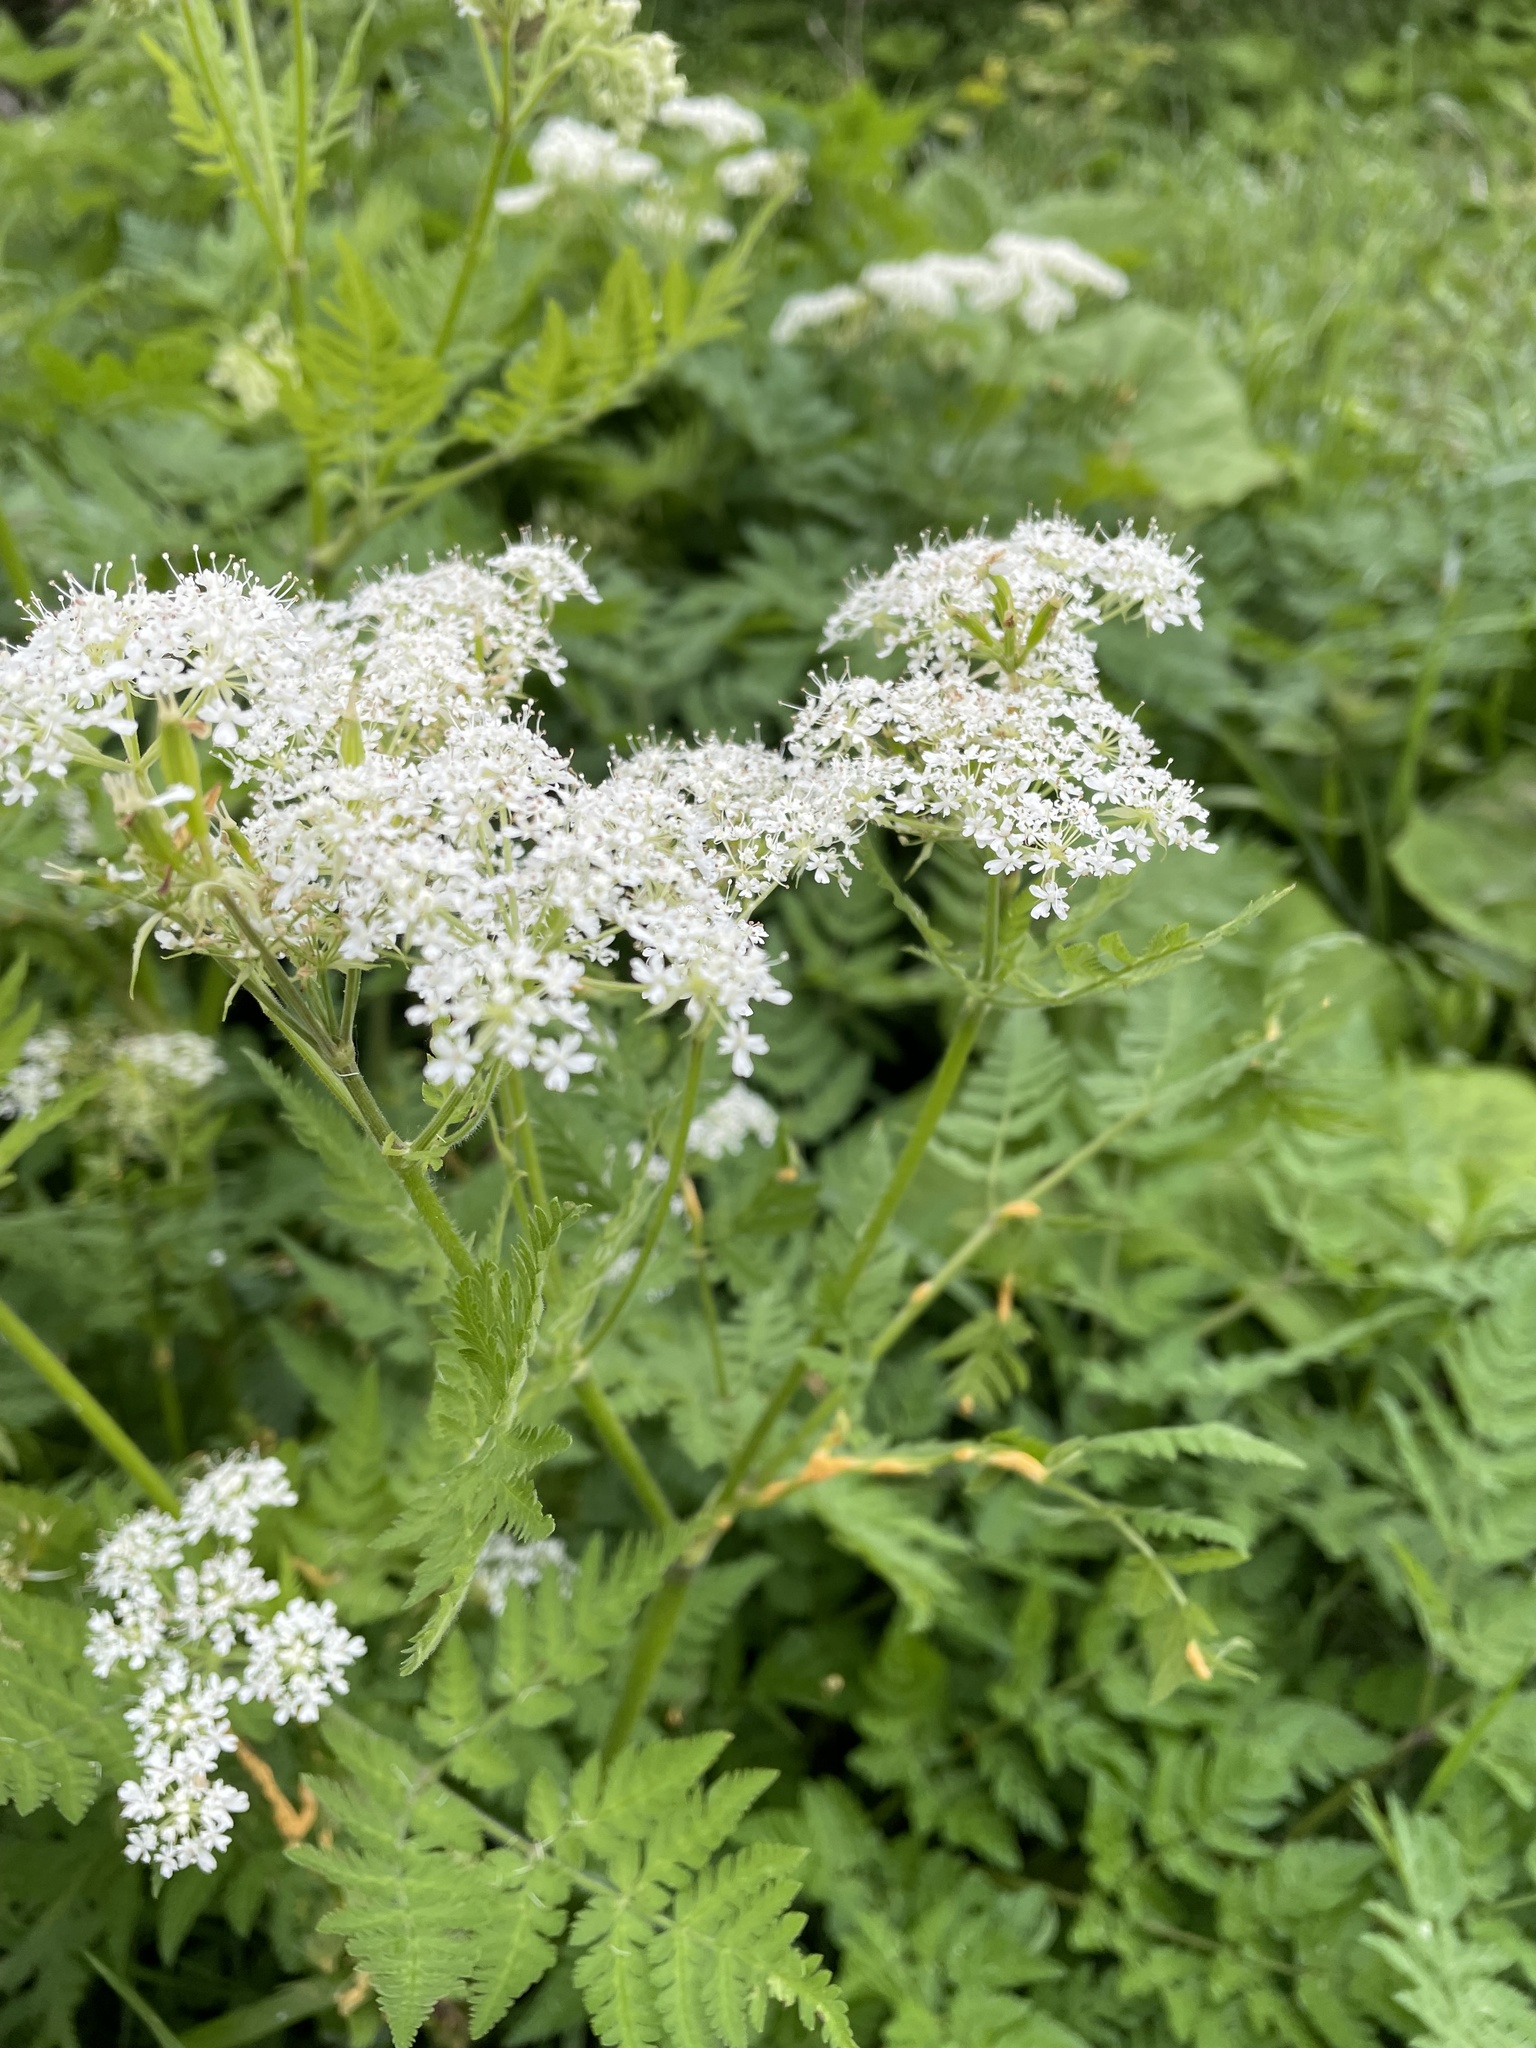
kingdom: Fungi
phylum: Basidiomycota
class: Pucciniomycetes
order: Pucciniales
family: Pucciniaceae
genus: Puccinia
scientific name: Puccinia chaerophylli
